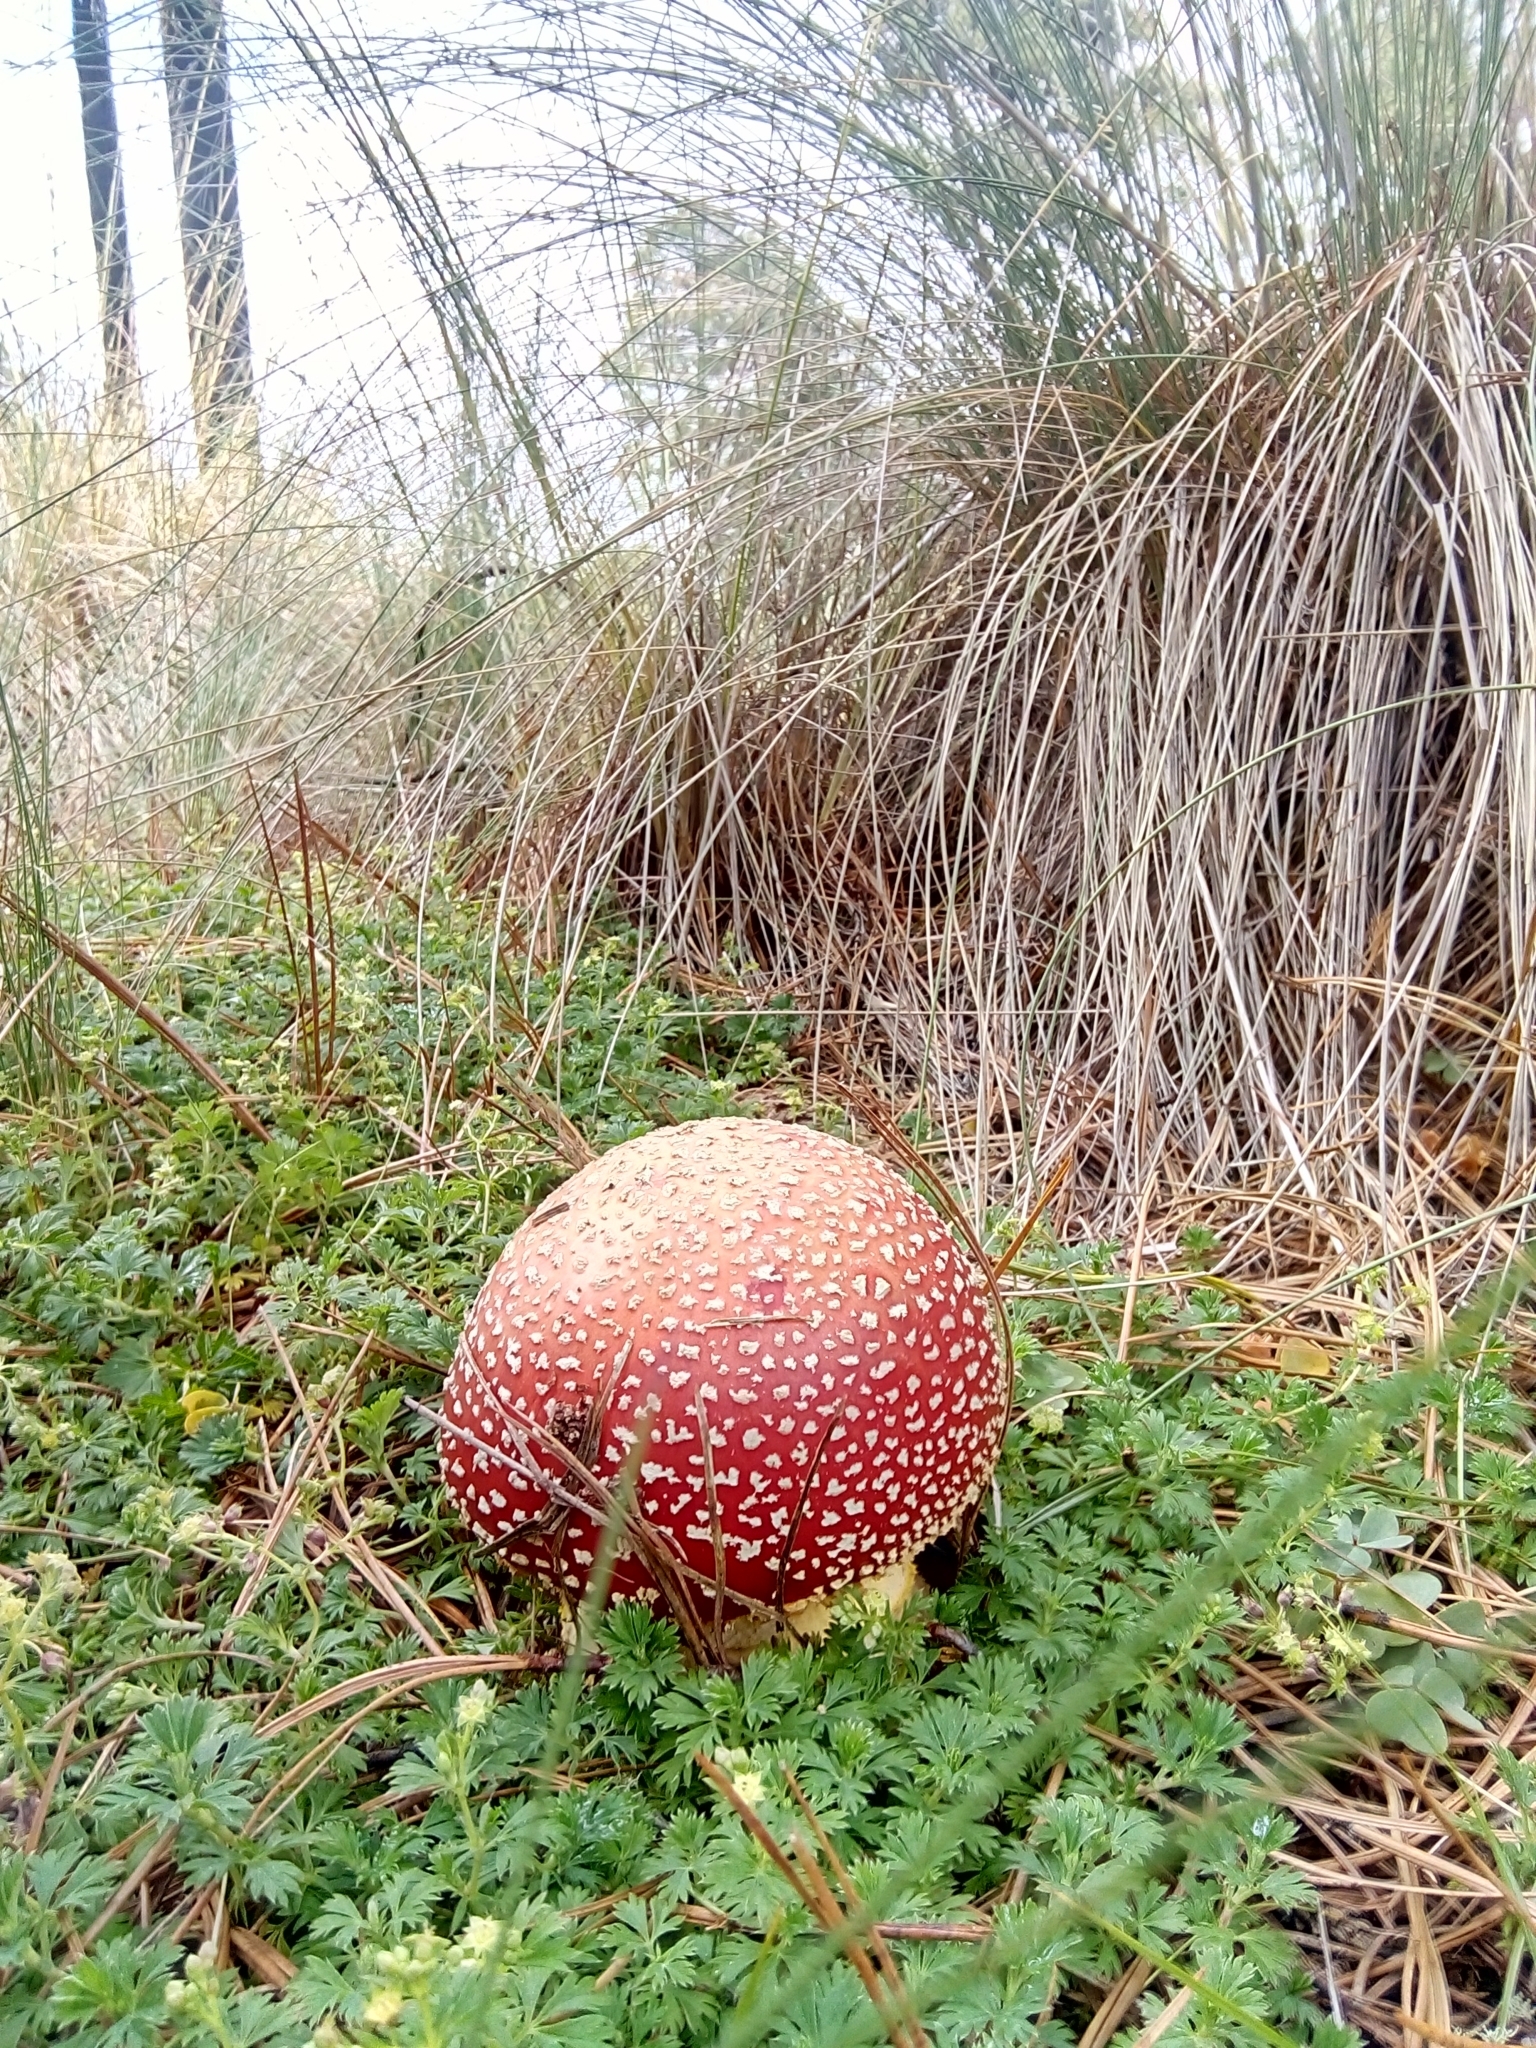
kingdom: Fungi
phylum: Basidiomycota
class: Agaricomycetes
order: Agaricales
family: Amanitaceae
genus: Amanita
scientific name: Amanita muscaria
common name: Fly agaric
